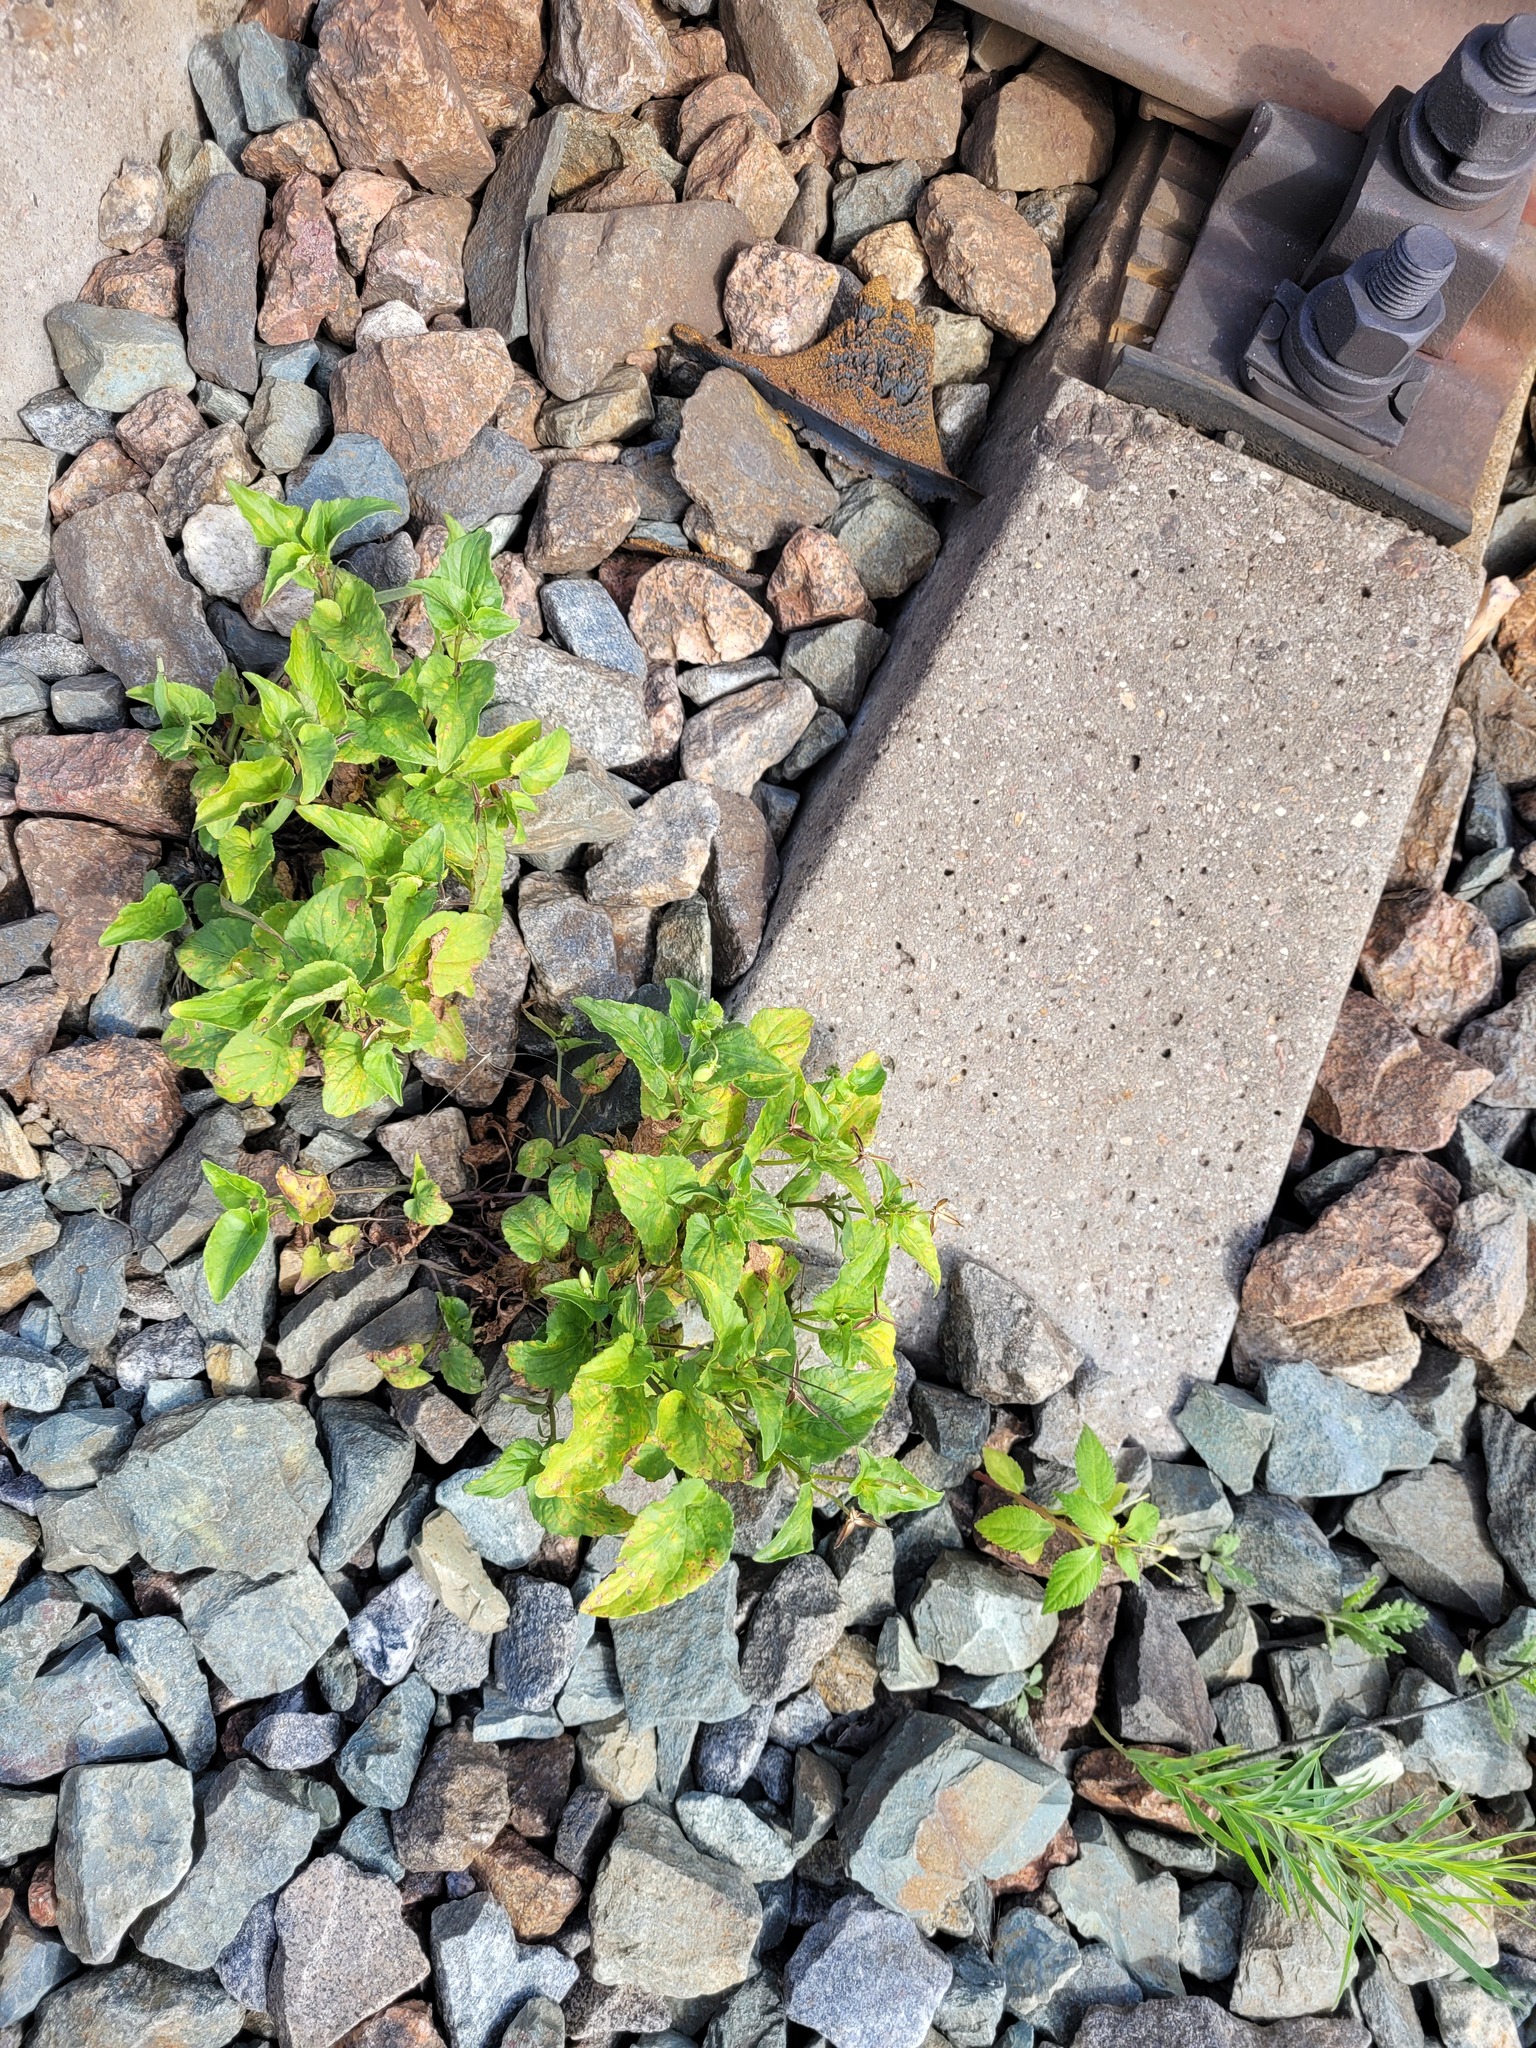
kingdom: Plantae
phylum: Tracheophyta
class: Magnoliopsida
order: Malpighiales
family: Violaceae
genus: Viola
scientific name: Viola canina
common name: Heath dog-violet
